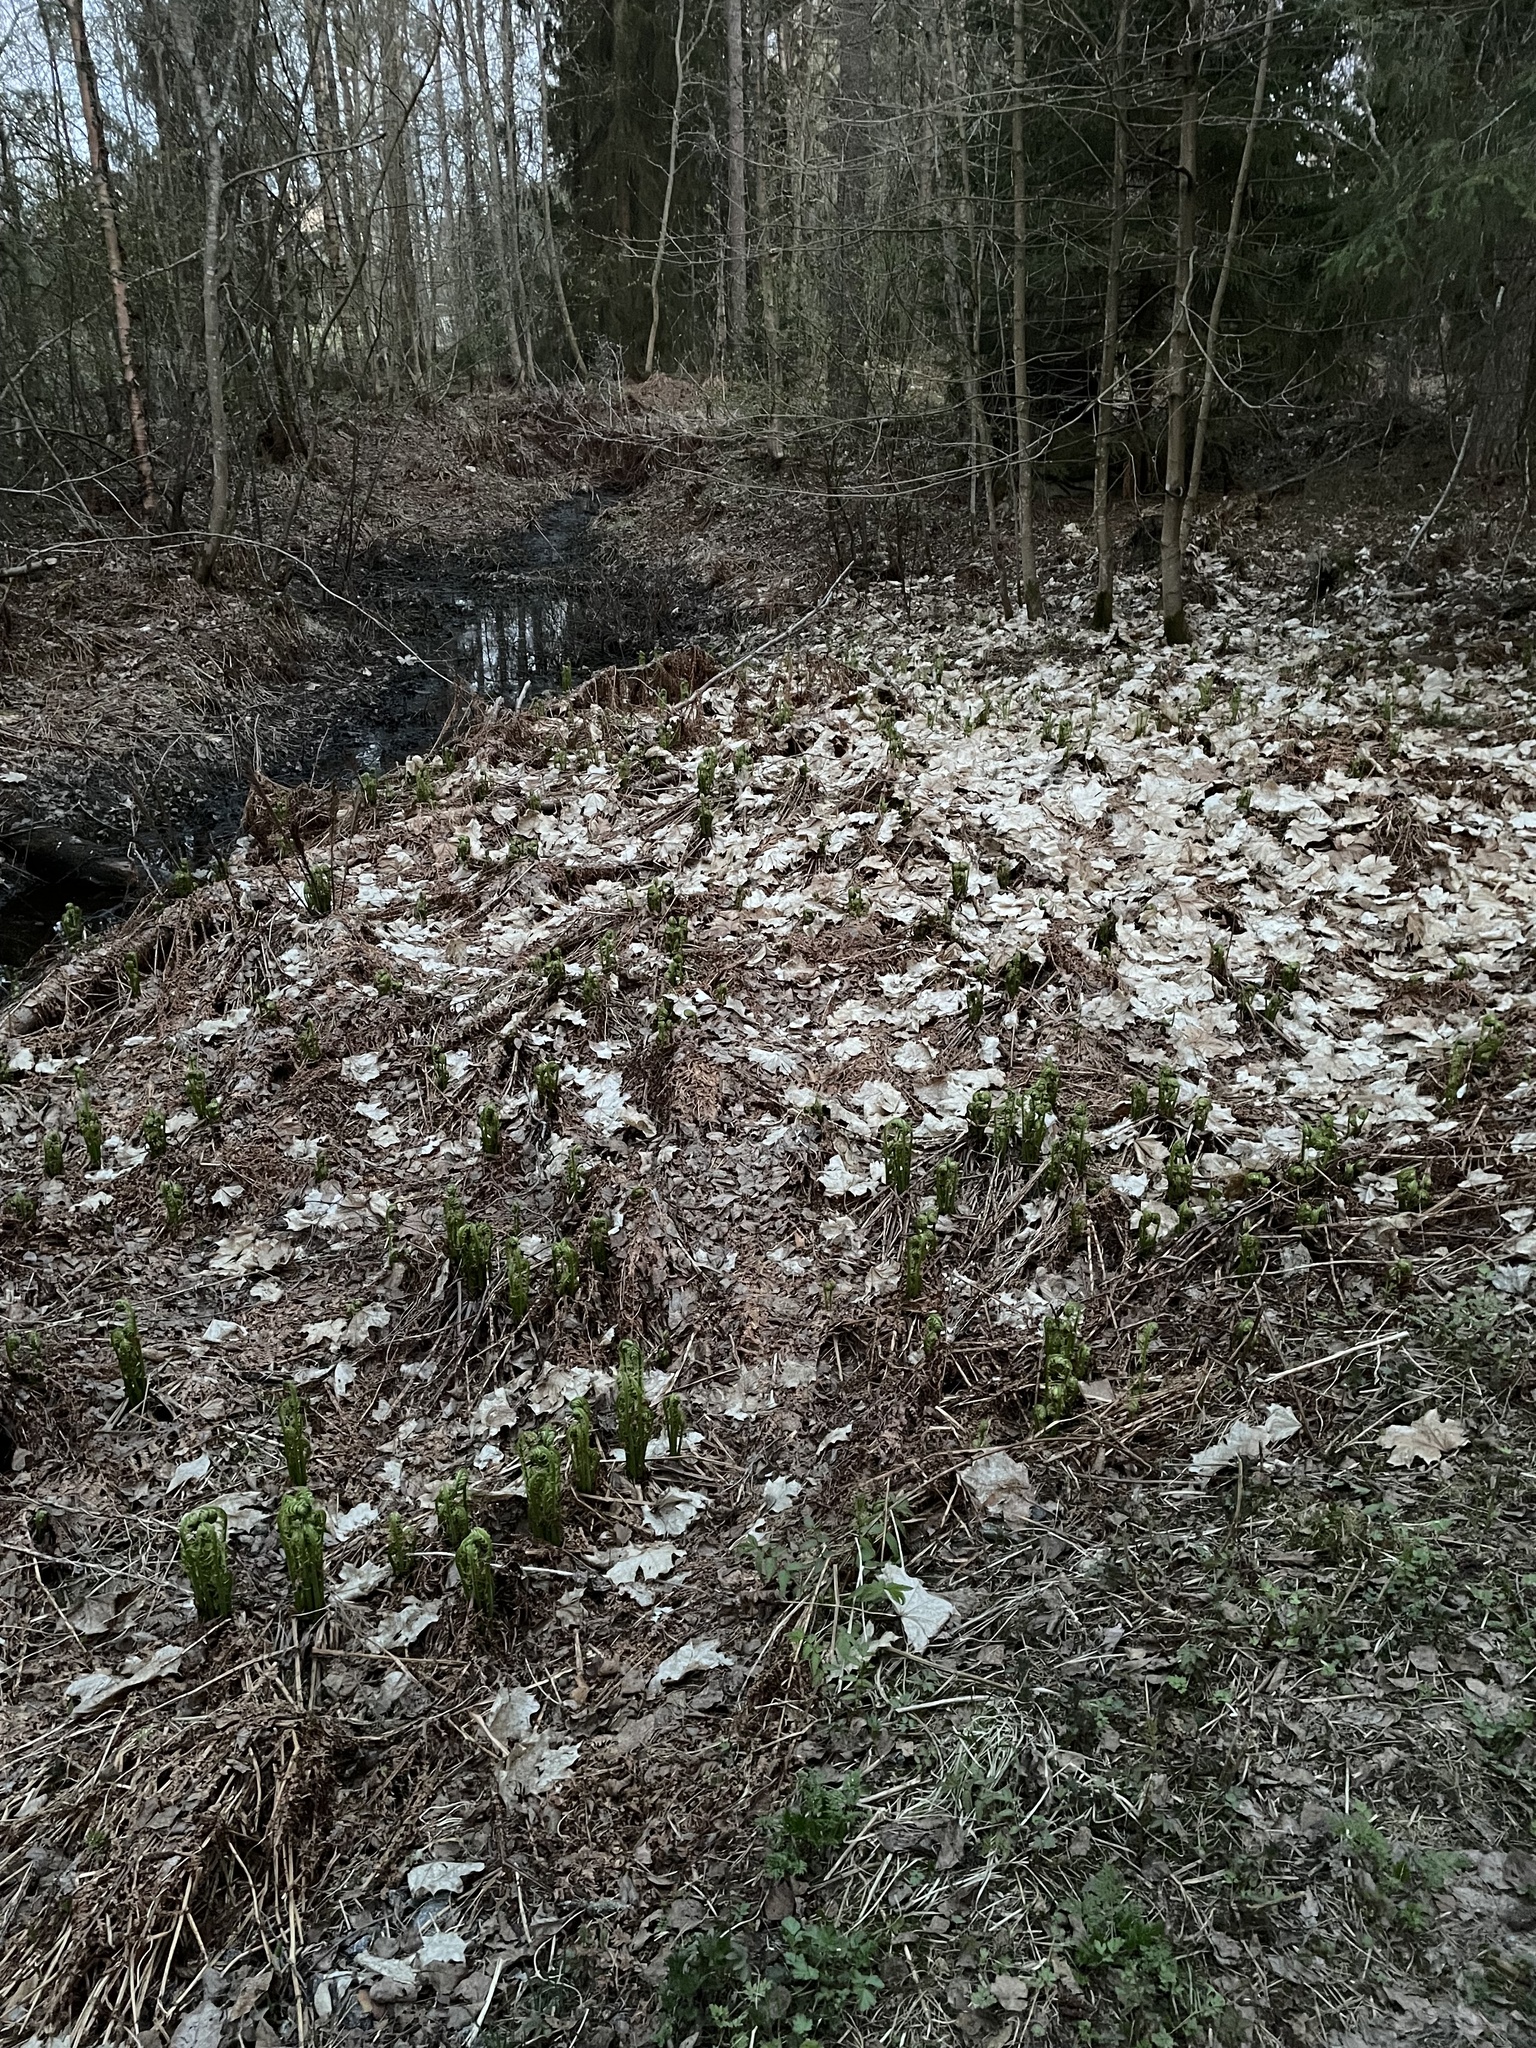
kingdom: Plantae
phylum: Tracheophyta
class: Polypodiopsida
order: Polypodiales
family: Onocleaceae
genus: Matteuccia
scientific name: Matteuccia struthiopteris
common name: Ostrich fern
